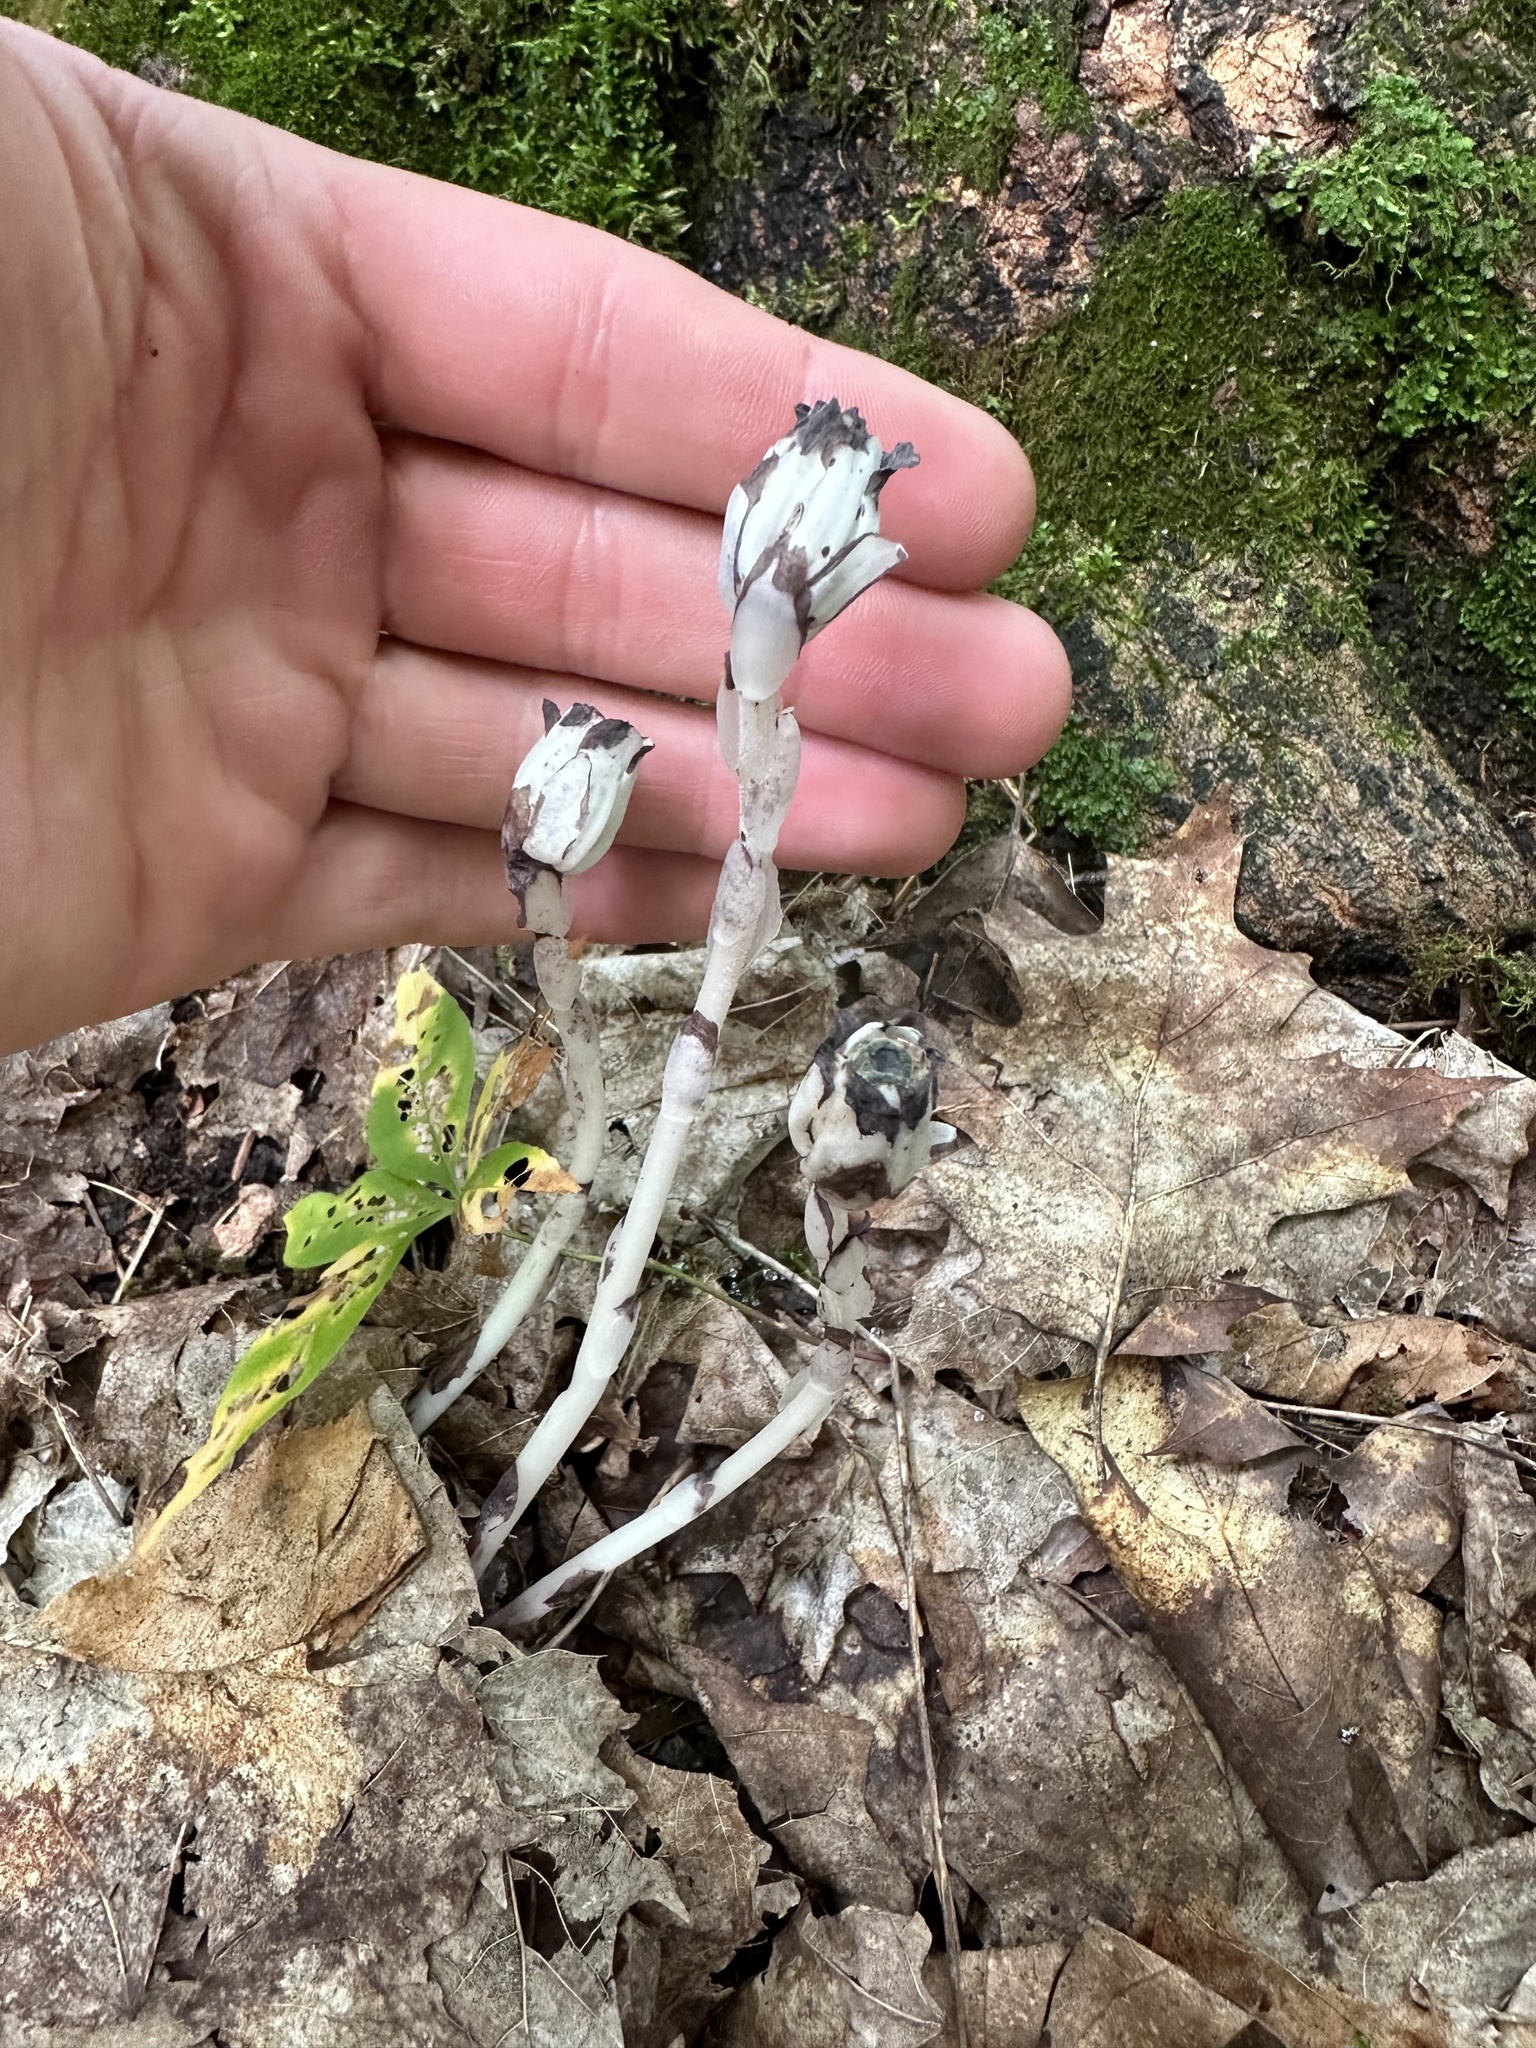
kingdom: Plantae
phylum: Tracheophyta
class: Magnoliopsida
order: Ericales
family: Ericaceae
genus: Monotropa
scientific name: Monotropa uniflora
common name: Convulsion root
